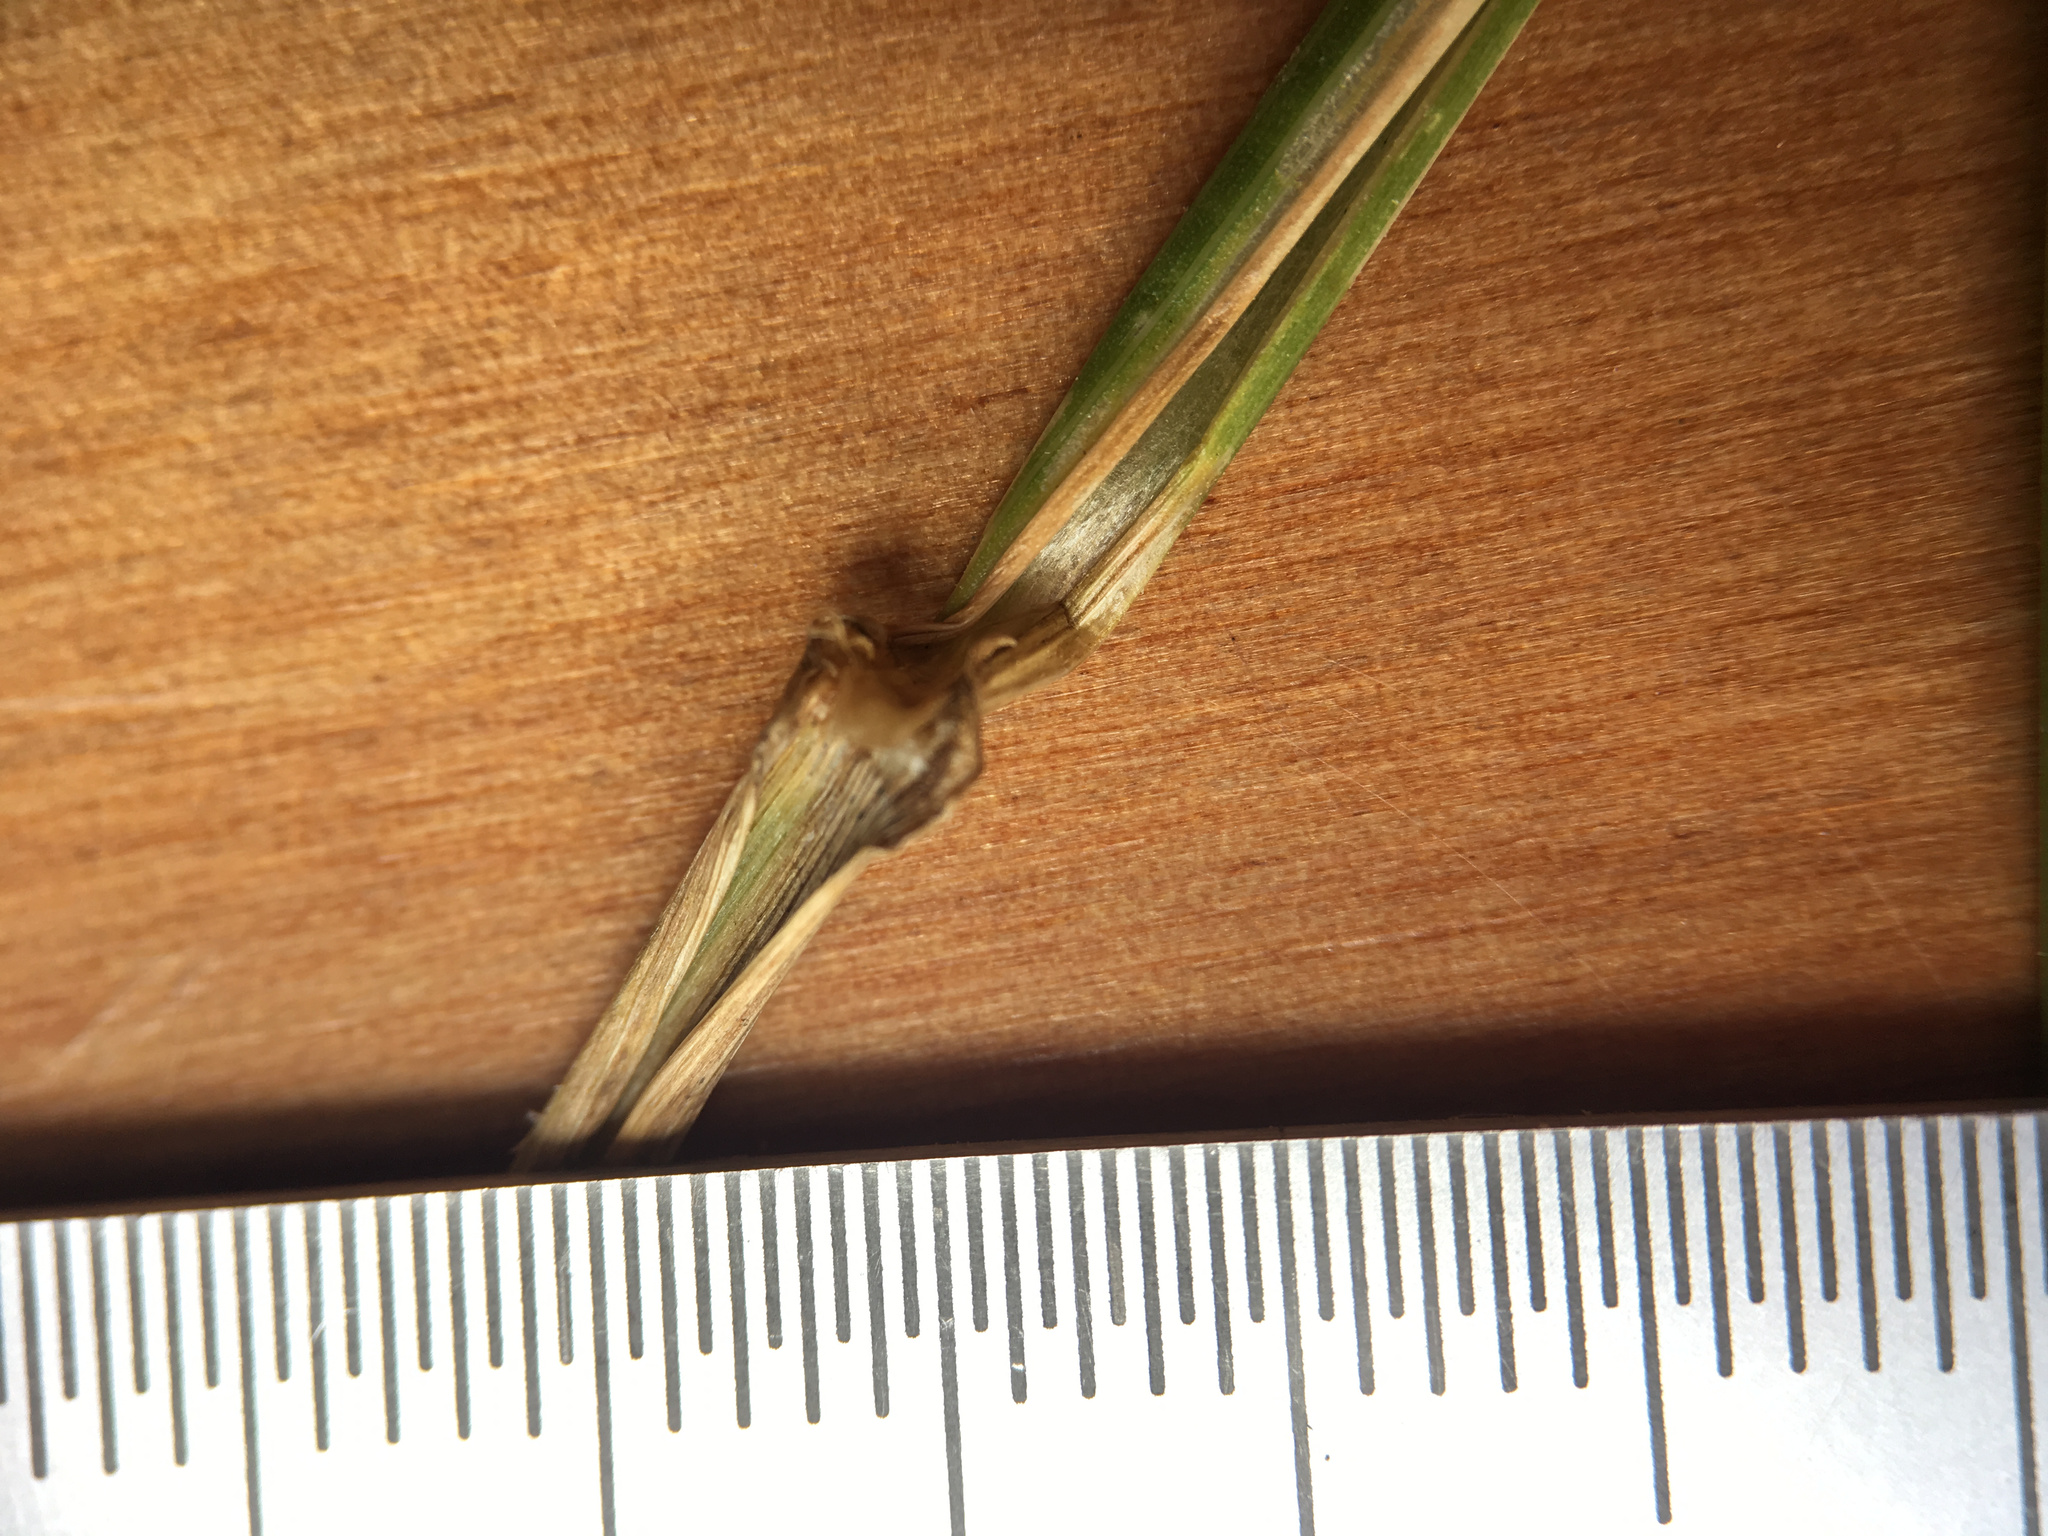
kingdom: Plantae
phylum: Tracheophyta
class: Liliopsida
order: Poales
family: Poaceae
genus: Lolium
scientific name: Lolium perenne
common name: Perennial ryegrass
